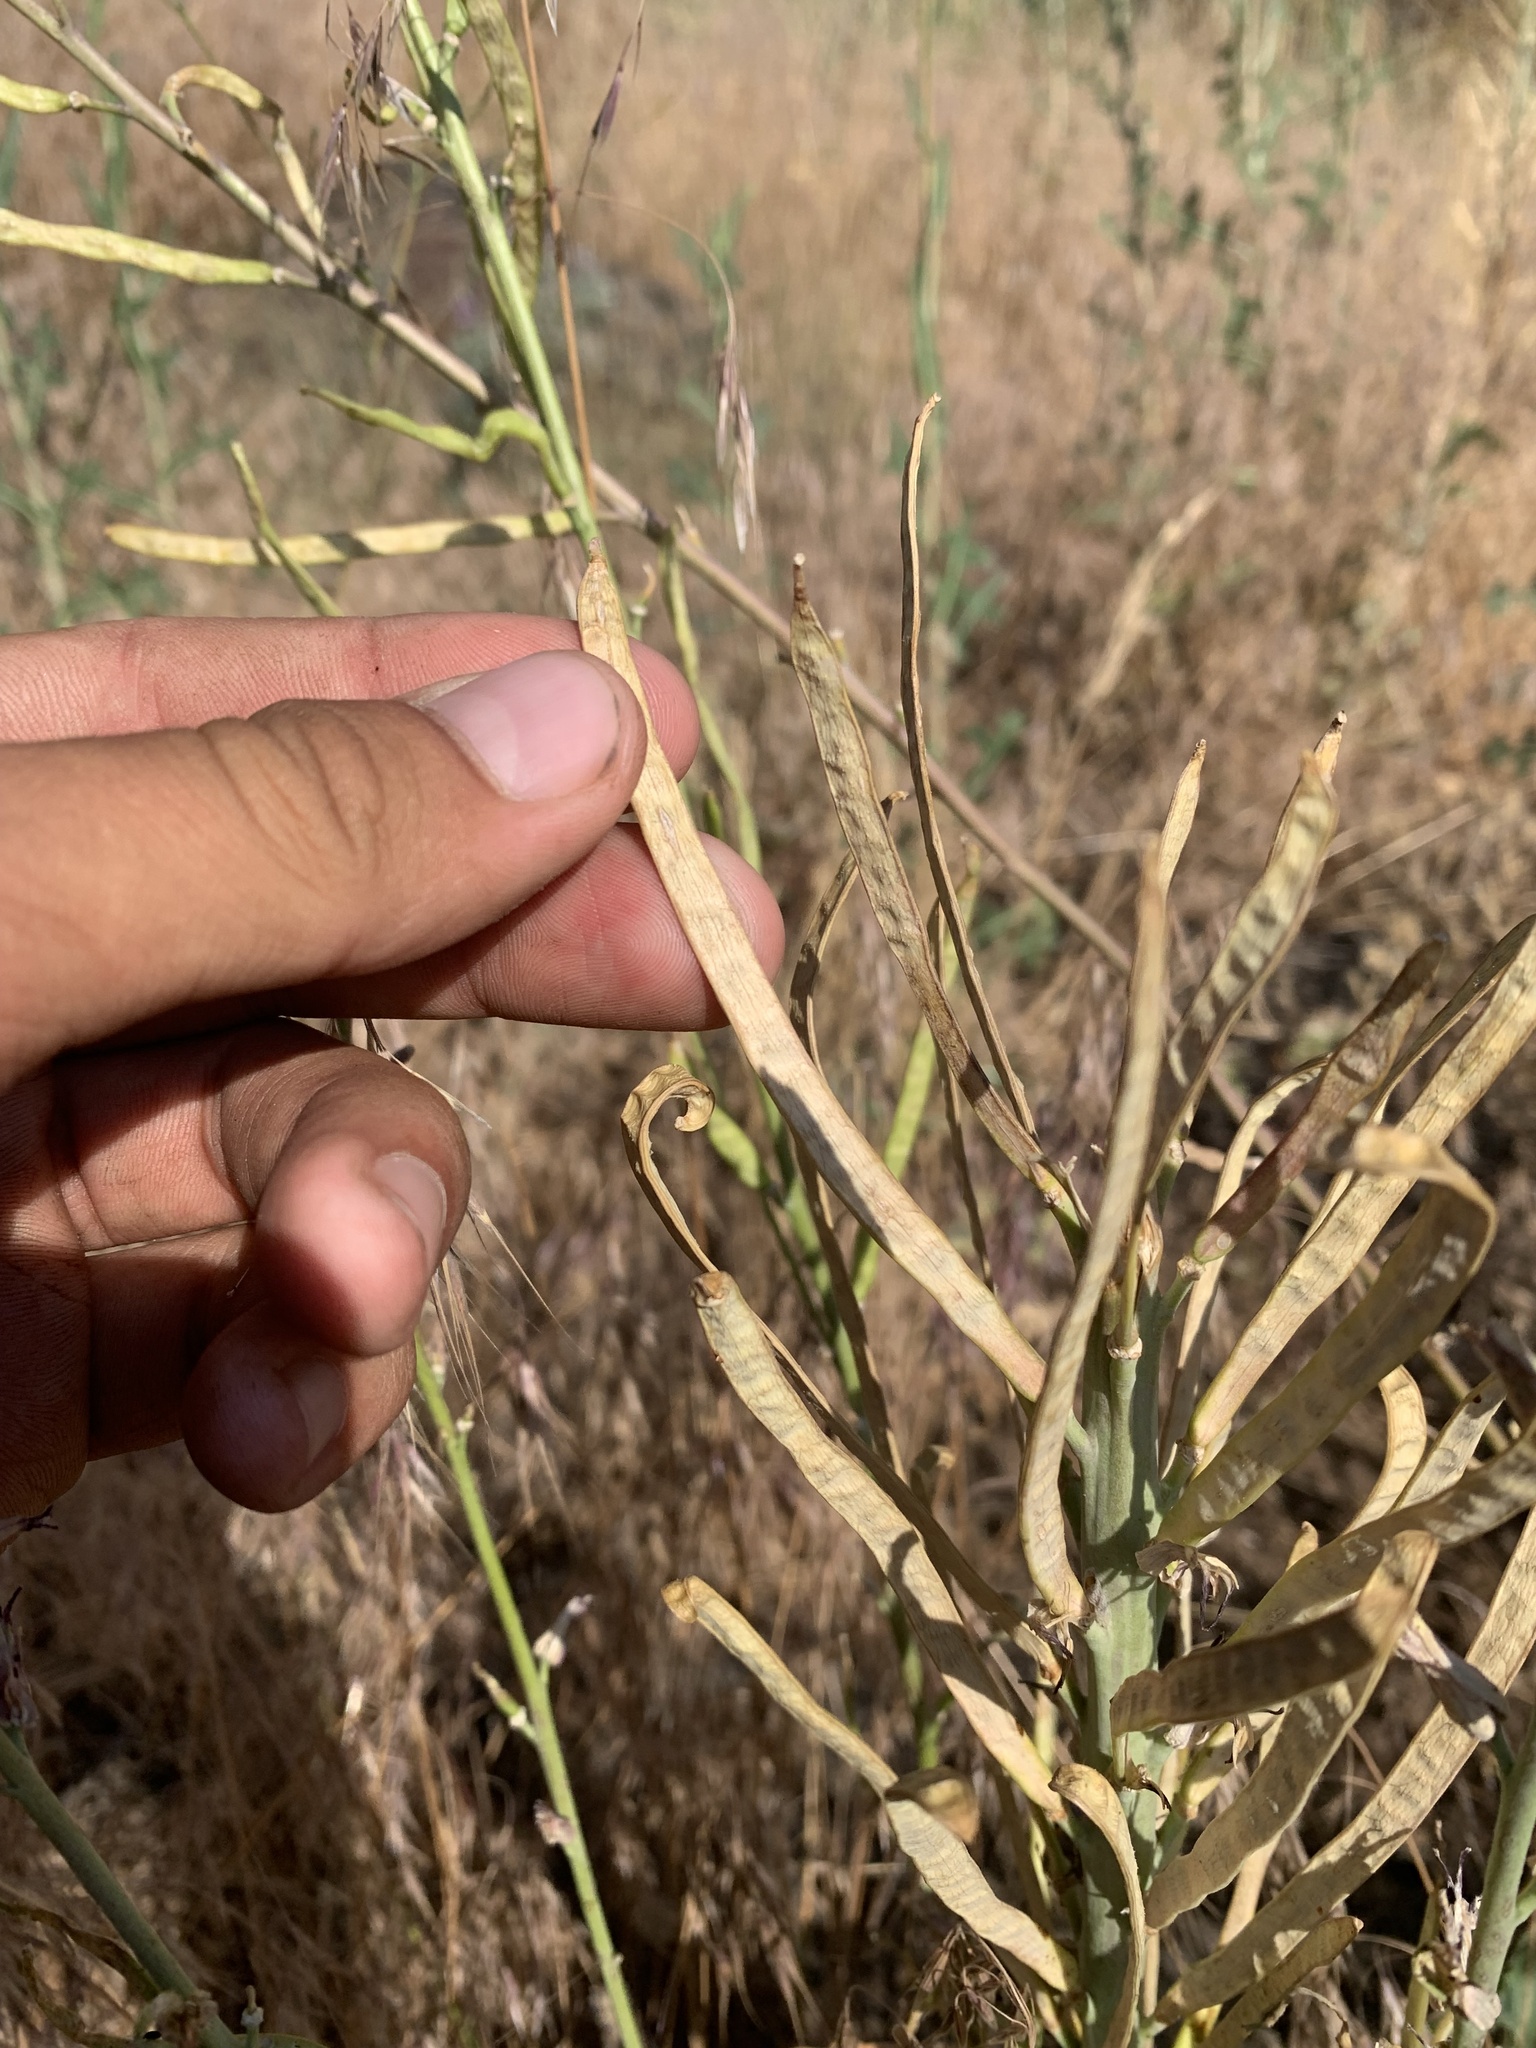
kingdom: Plantae
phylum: Tracheophyta
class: Magnoliopsida
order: Brassicales
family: Brassicaceae
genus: Streptanthus
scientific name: Streptanthus cordatus
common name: Heart-leaf jewel-flower
